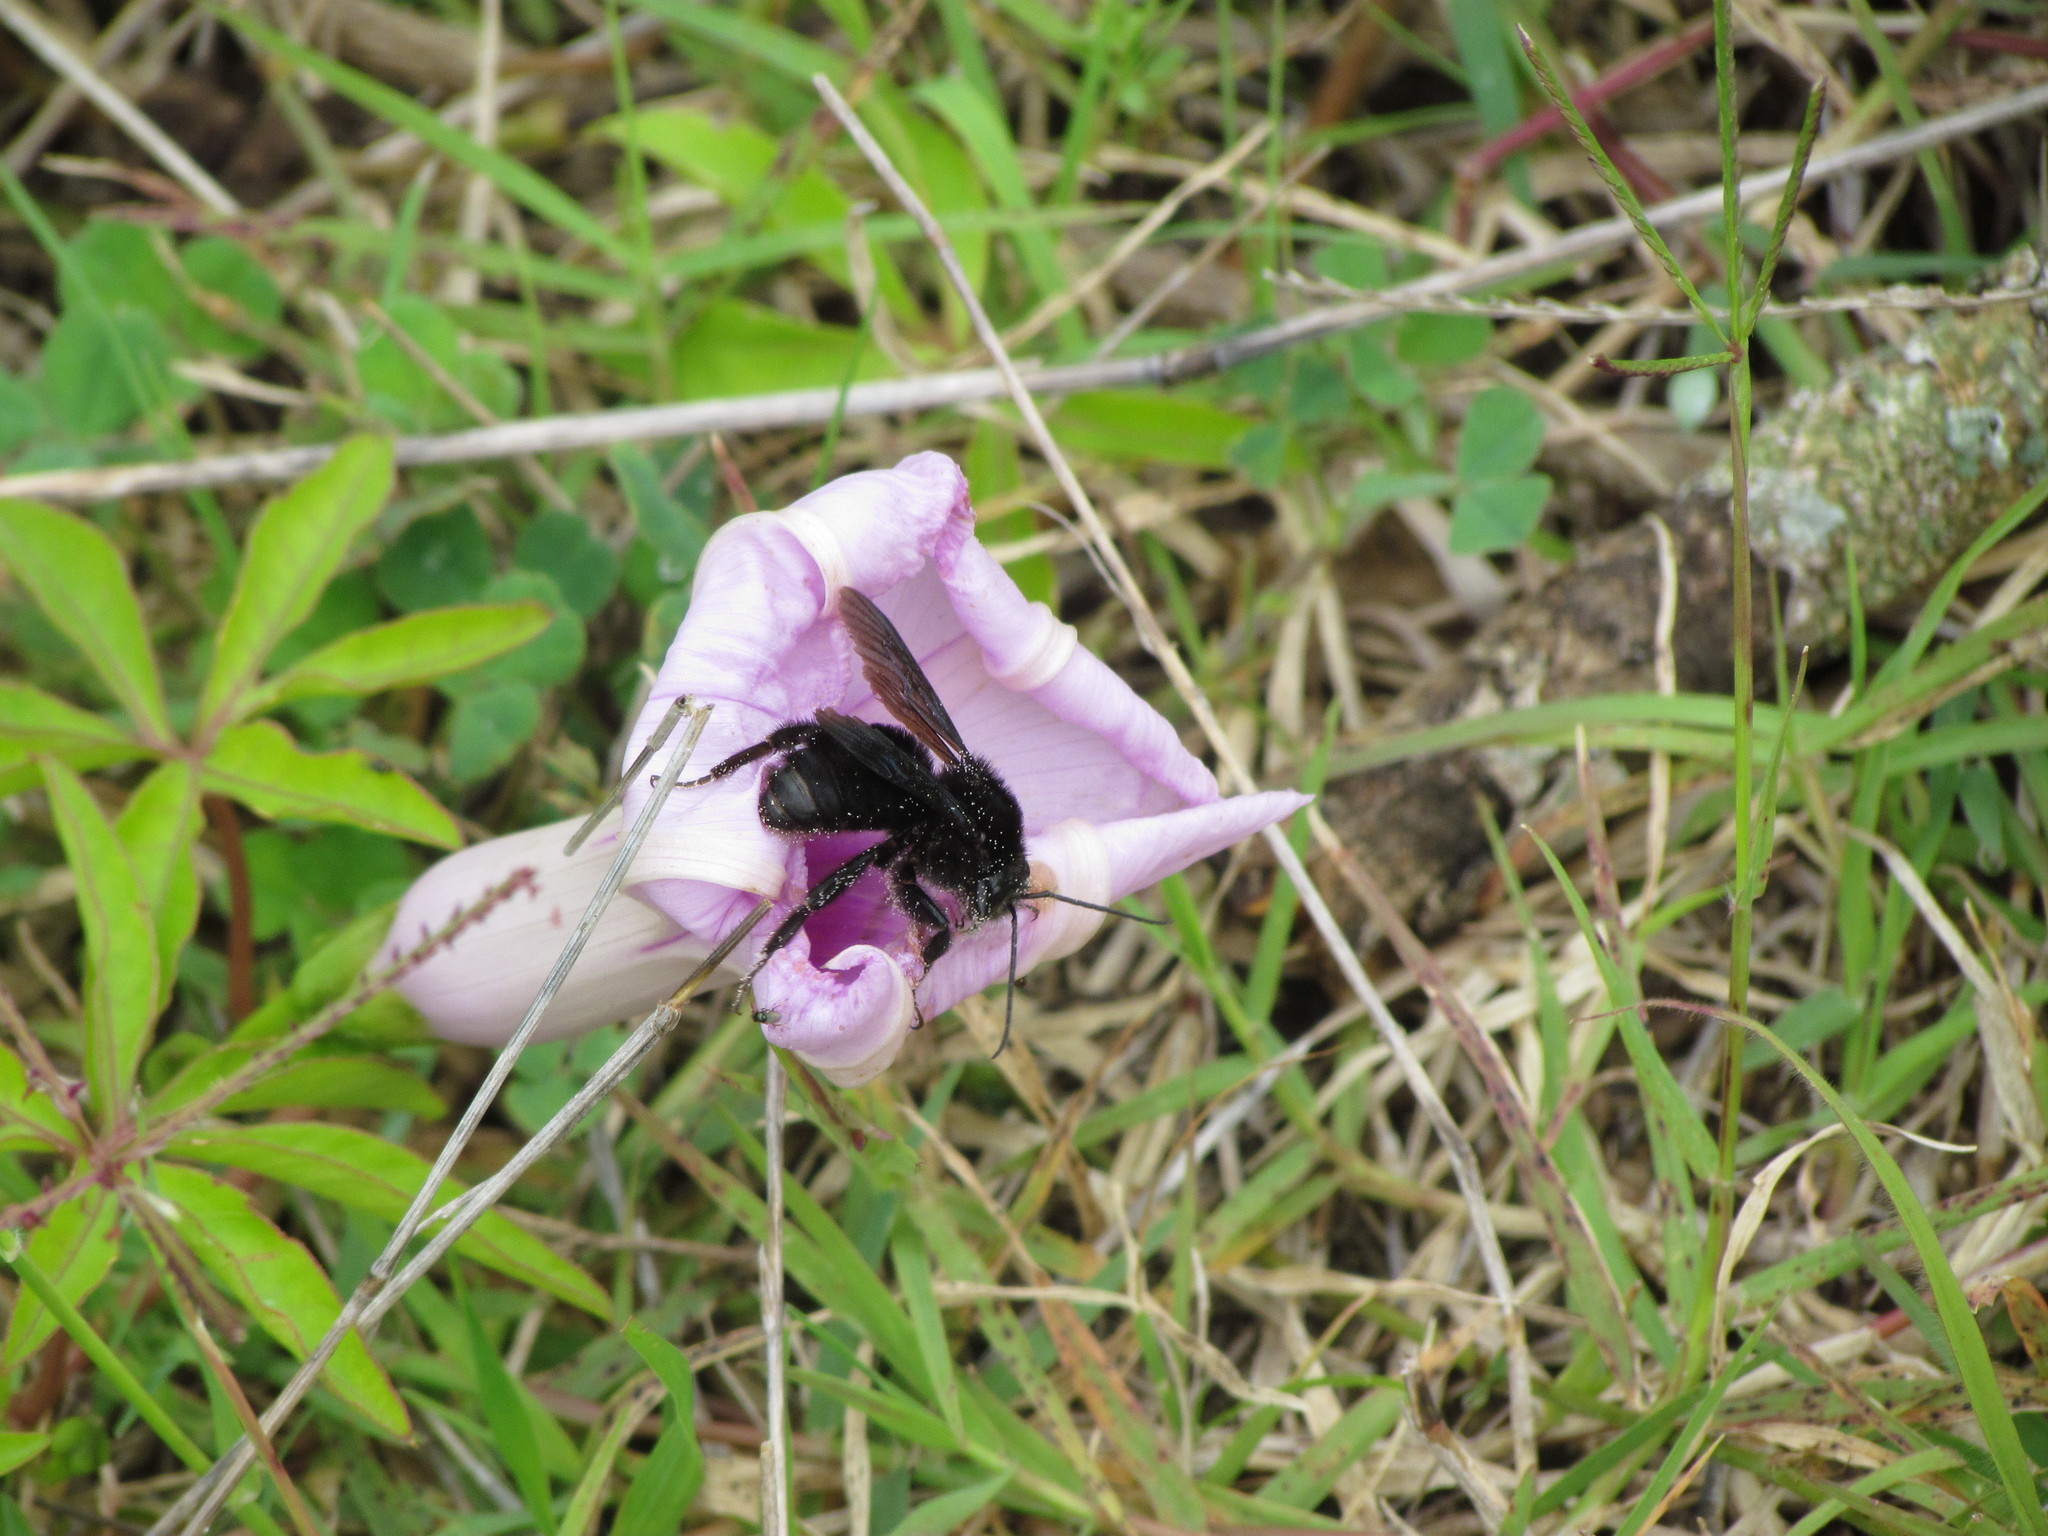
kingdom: Animalia
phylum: Arthropoda
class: Insecta
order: Hymenoptera
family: Apidae
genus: Bombus
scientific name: Bombus pauloensis
